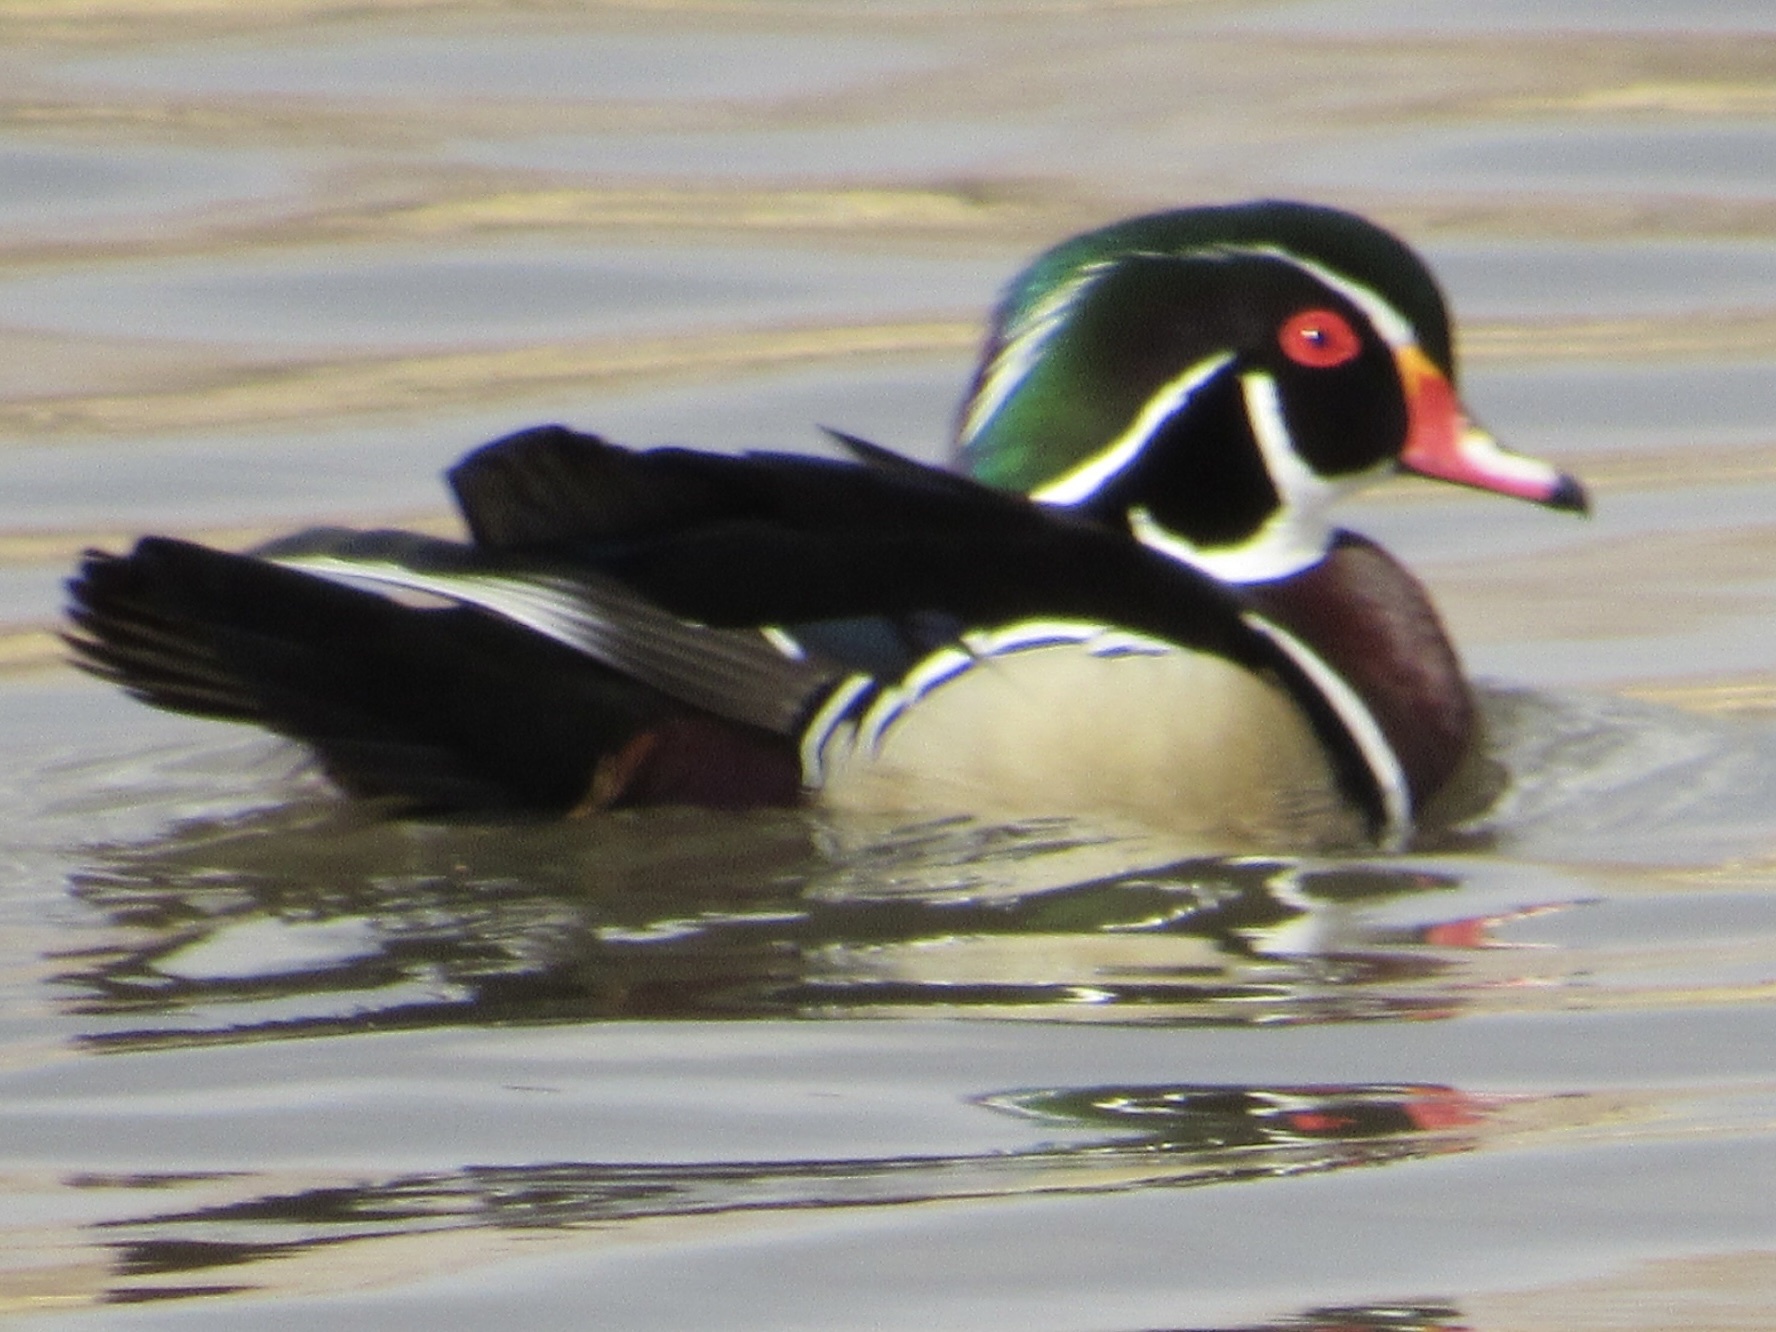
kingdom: Animalia
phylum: Chordata
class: Aves
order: Anseriformes
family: Anatidae
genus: Aix
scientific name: Aix sponsa
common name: Wood duck
